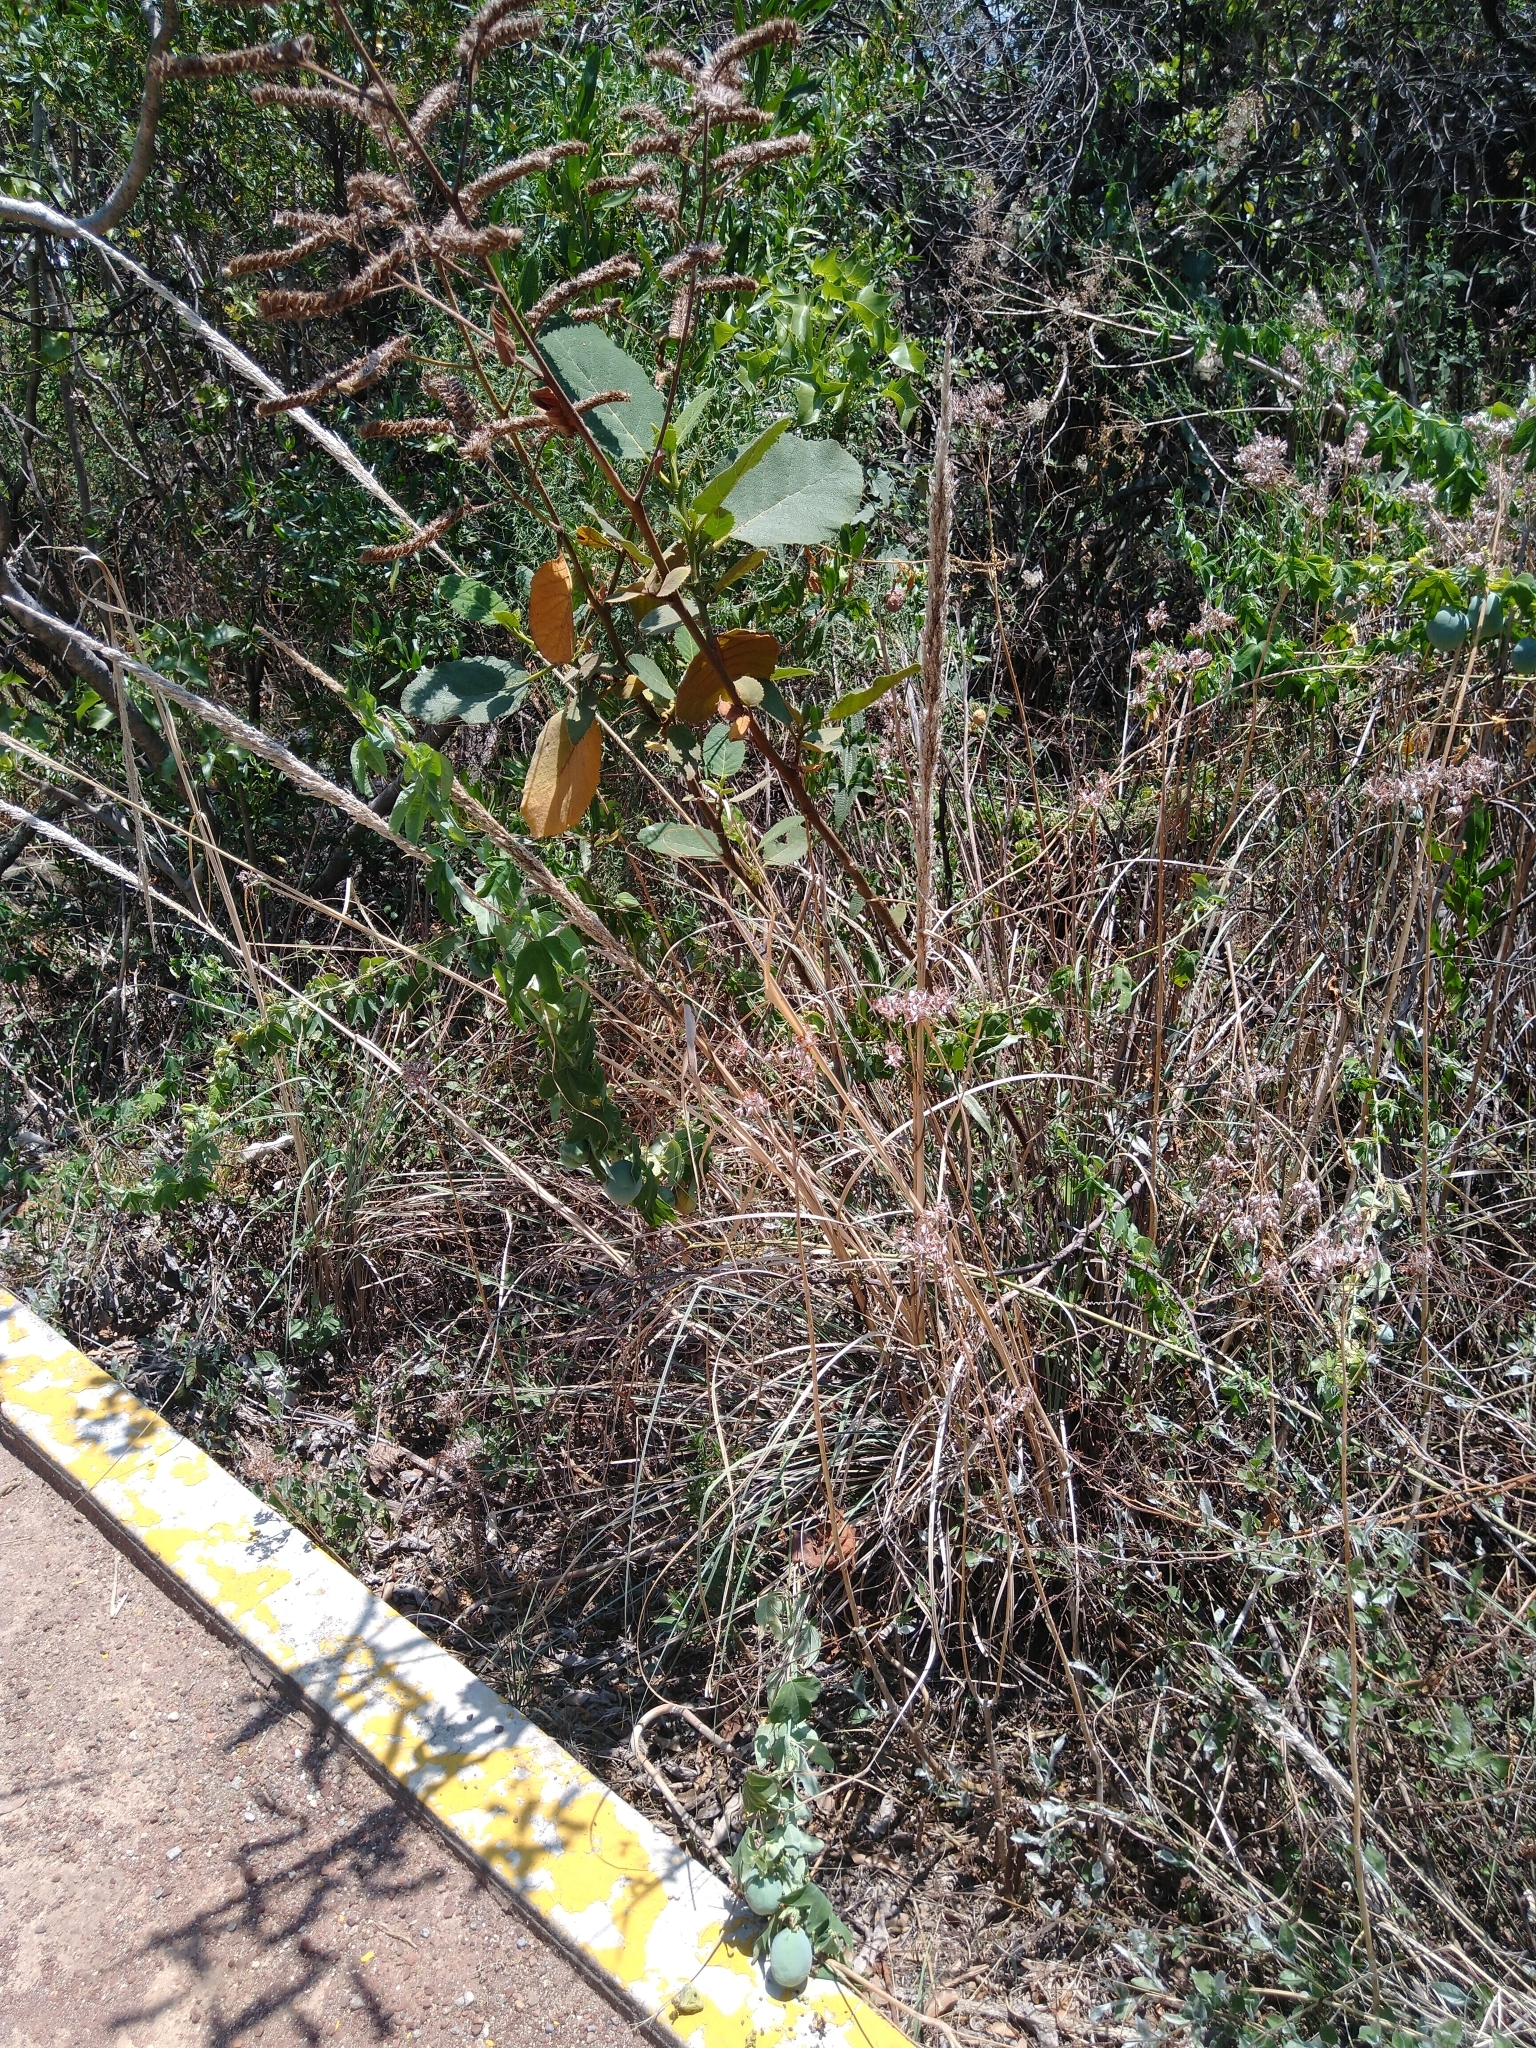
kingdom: Plantae
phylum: Tracheophyta
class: Liliopsida
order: Poales
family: Poaceae
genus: Muhlenbergia
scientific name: Muhlenbergia robusta
